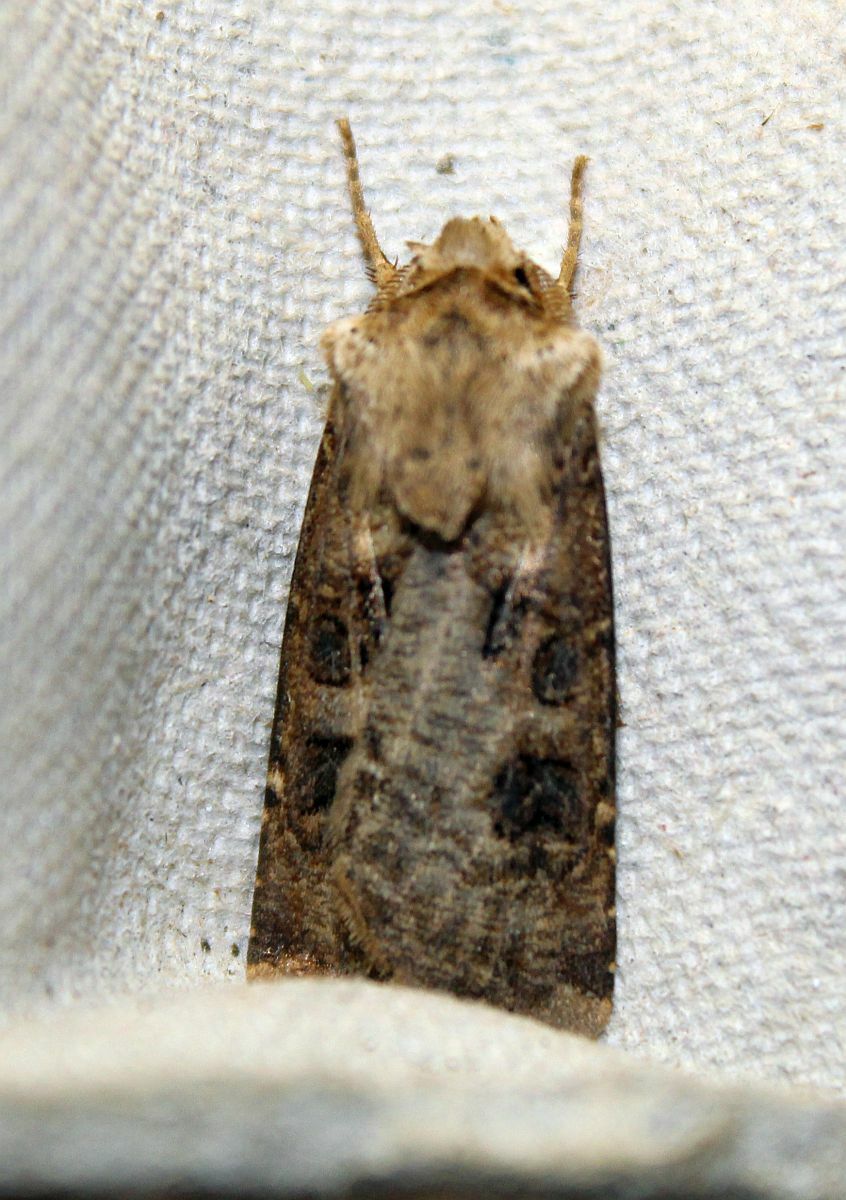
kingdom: Animalia
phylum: Arthropoda
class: Insecta
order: Lepidoptera
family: Noctuidae
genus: Agrotis
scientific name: Agrotis clavis
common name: Heart and club
